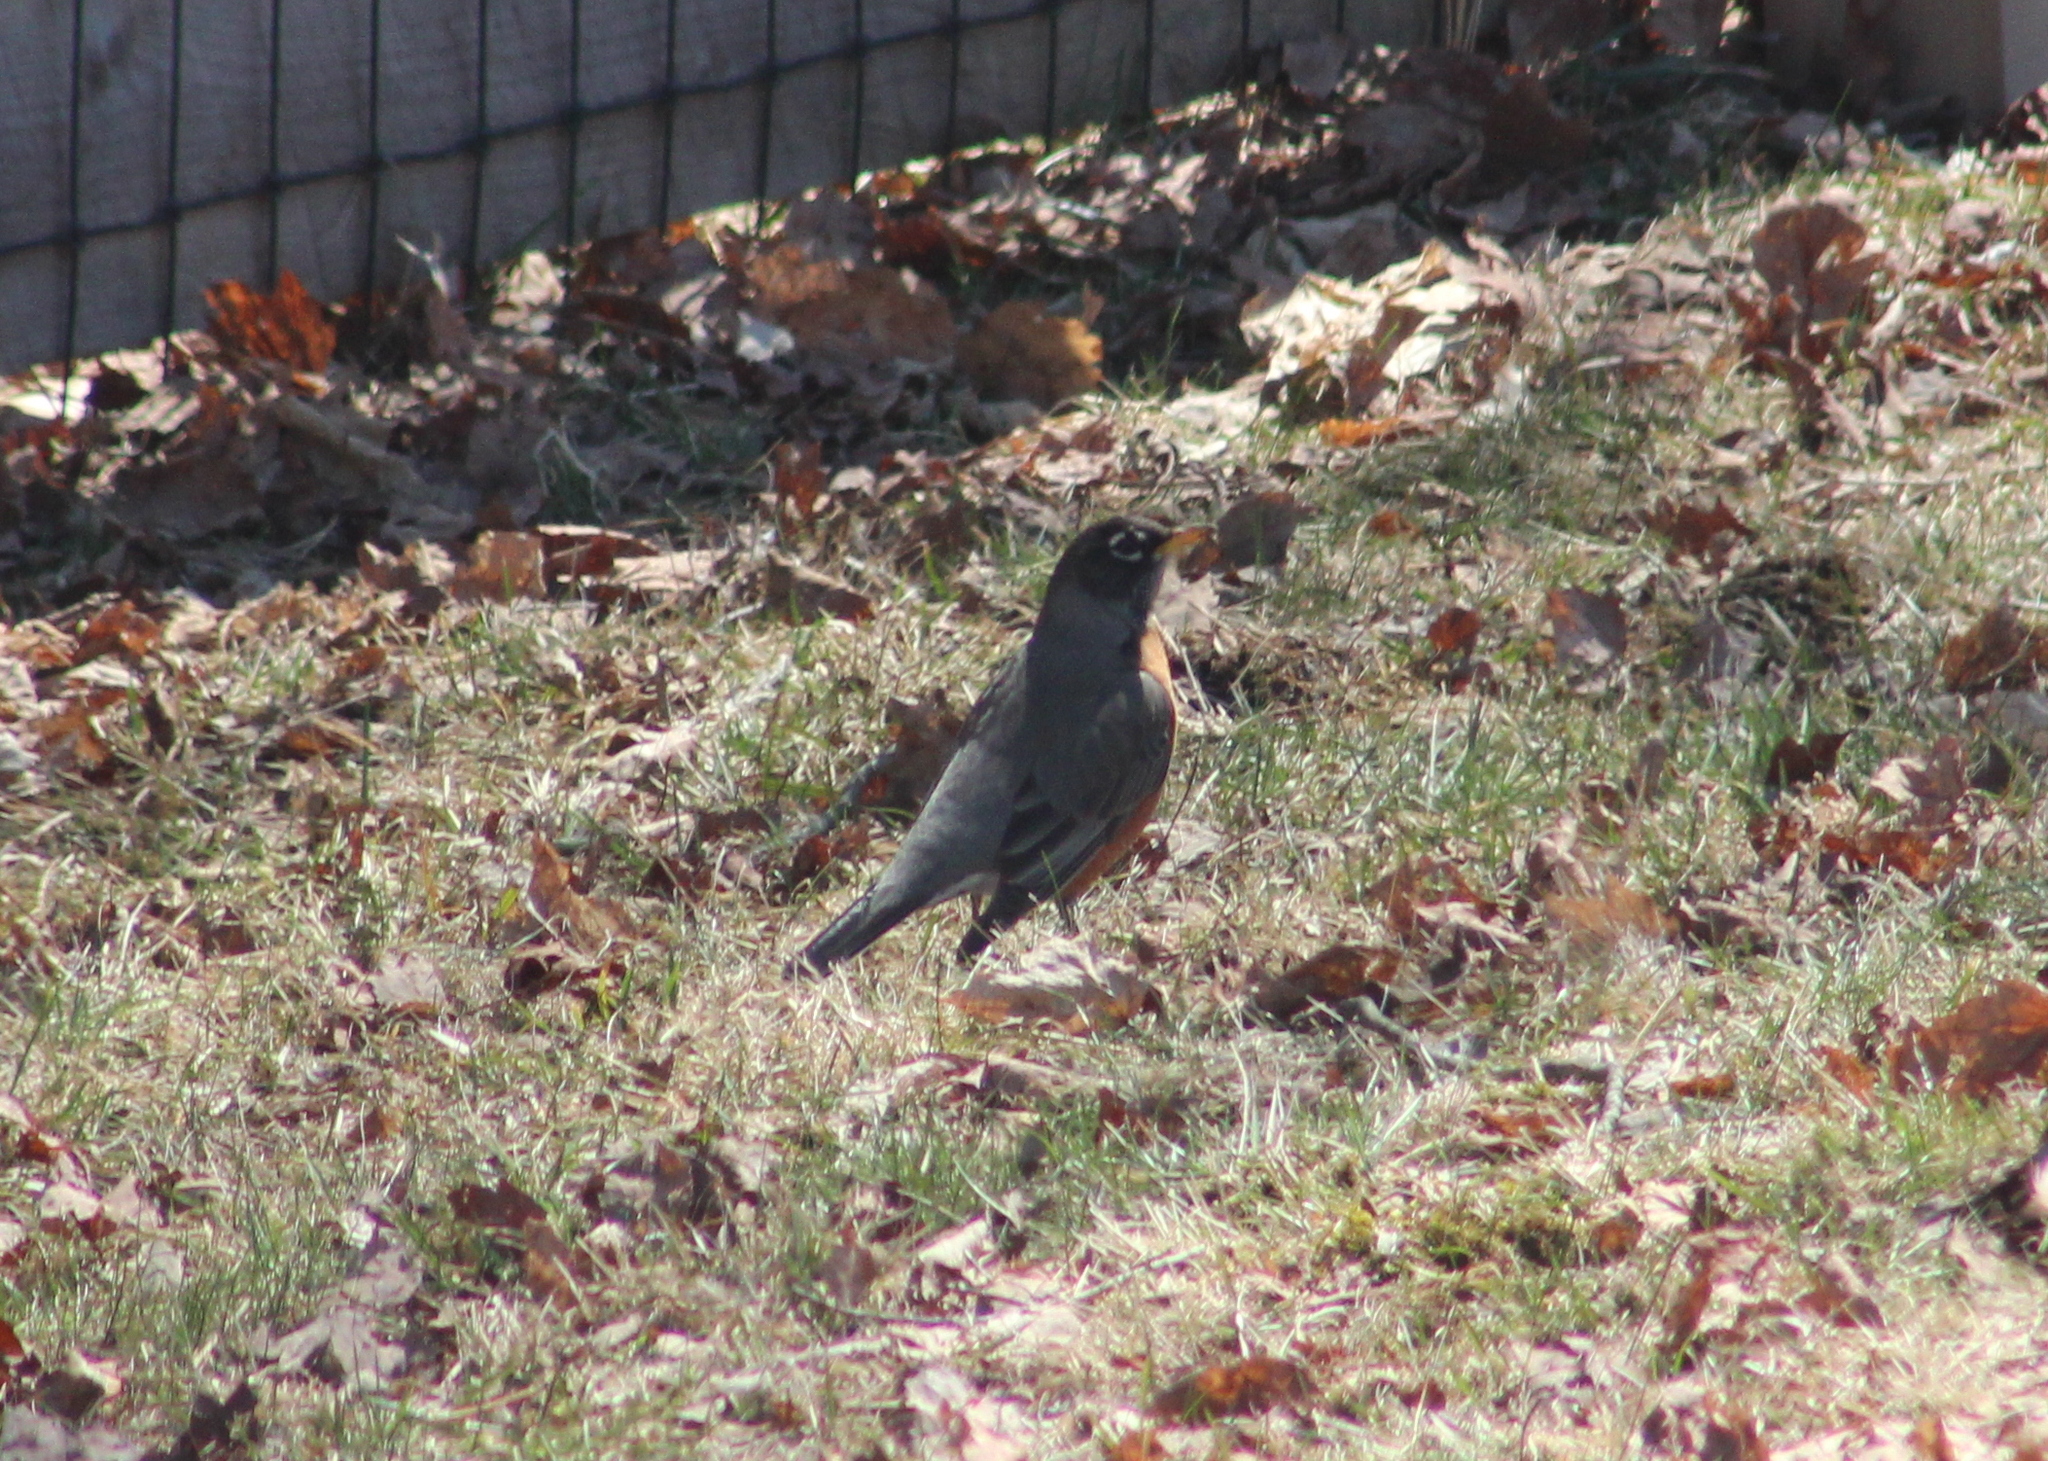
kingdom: Animalia
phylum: Chordata
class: Aves
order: Passeriformes
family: Turdidae
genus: Turdus
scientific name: Turdus migratorius
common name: American robin
